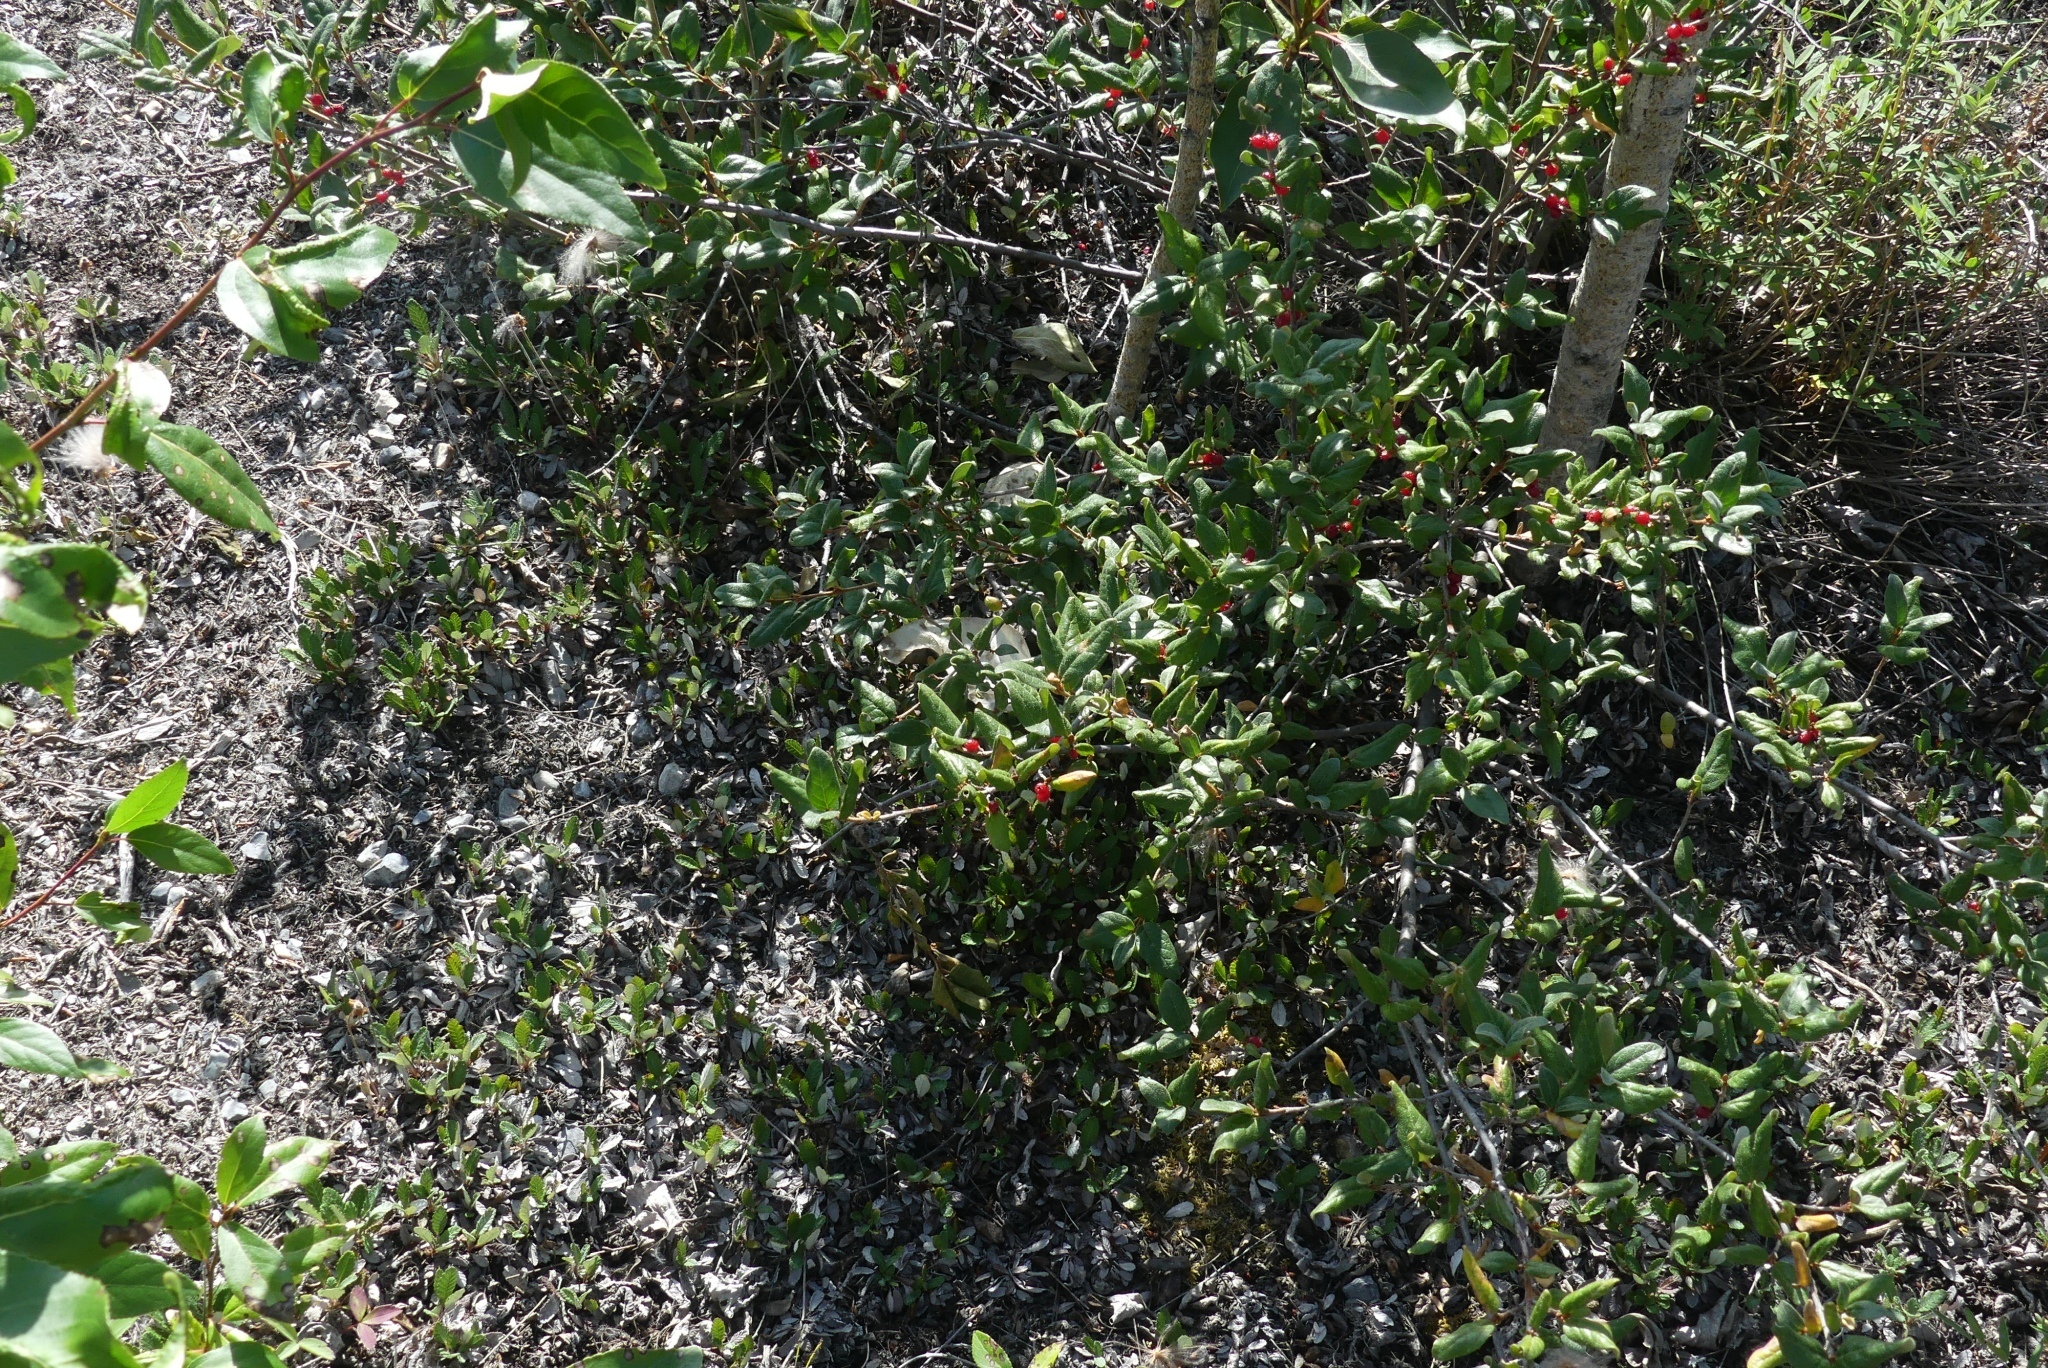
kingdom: Plantae
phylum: Tracheophyta
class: Magnoliopsida
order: Rosales
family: Elaeagnaceae
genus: Shepherdia
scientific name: Shepherdia canadensis
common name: Soapberry
